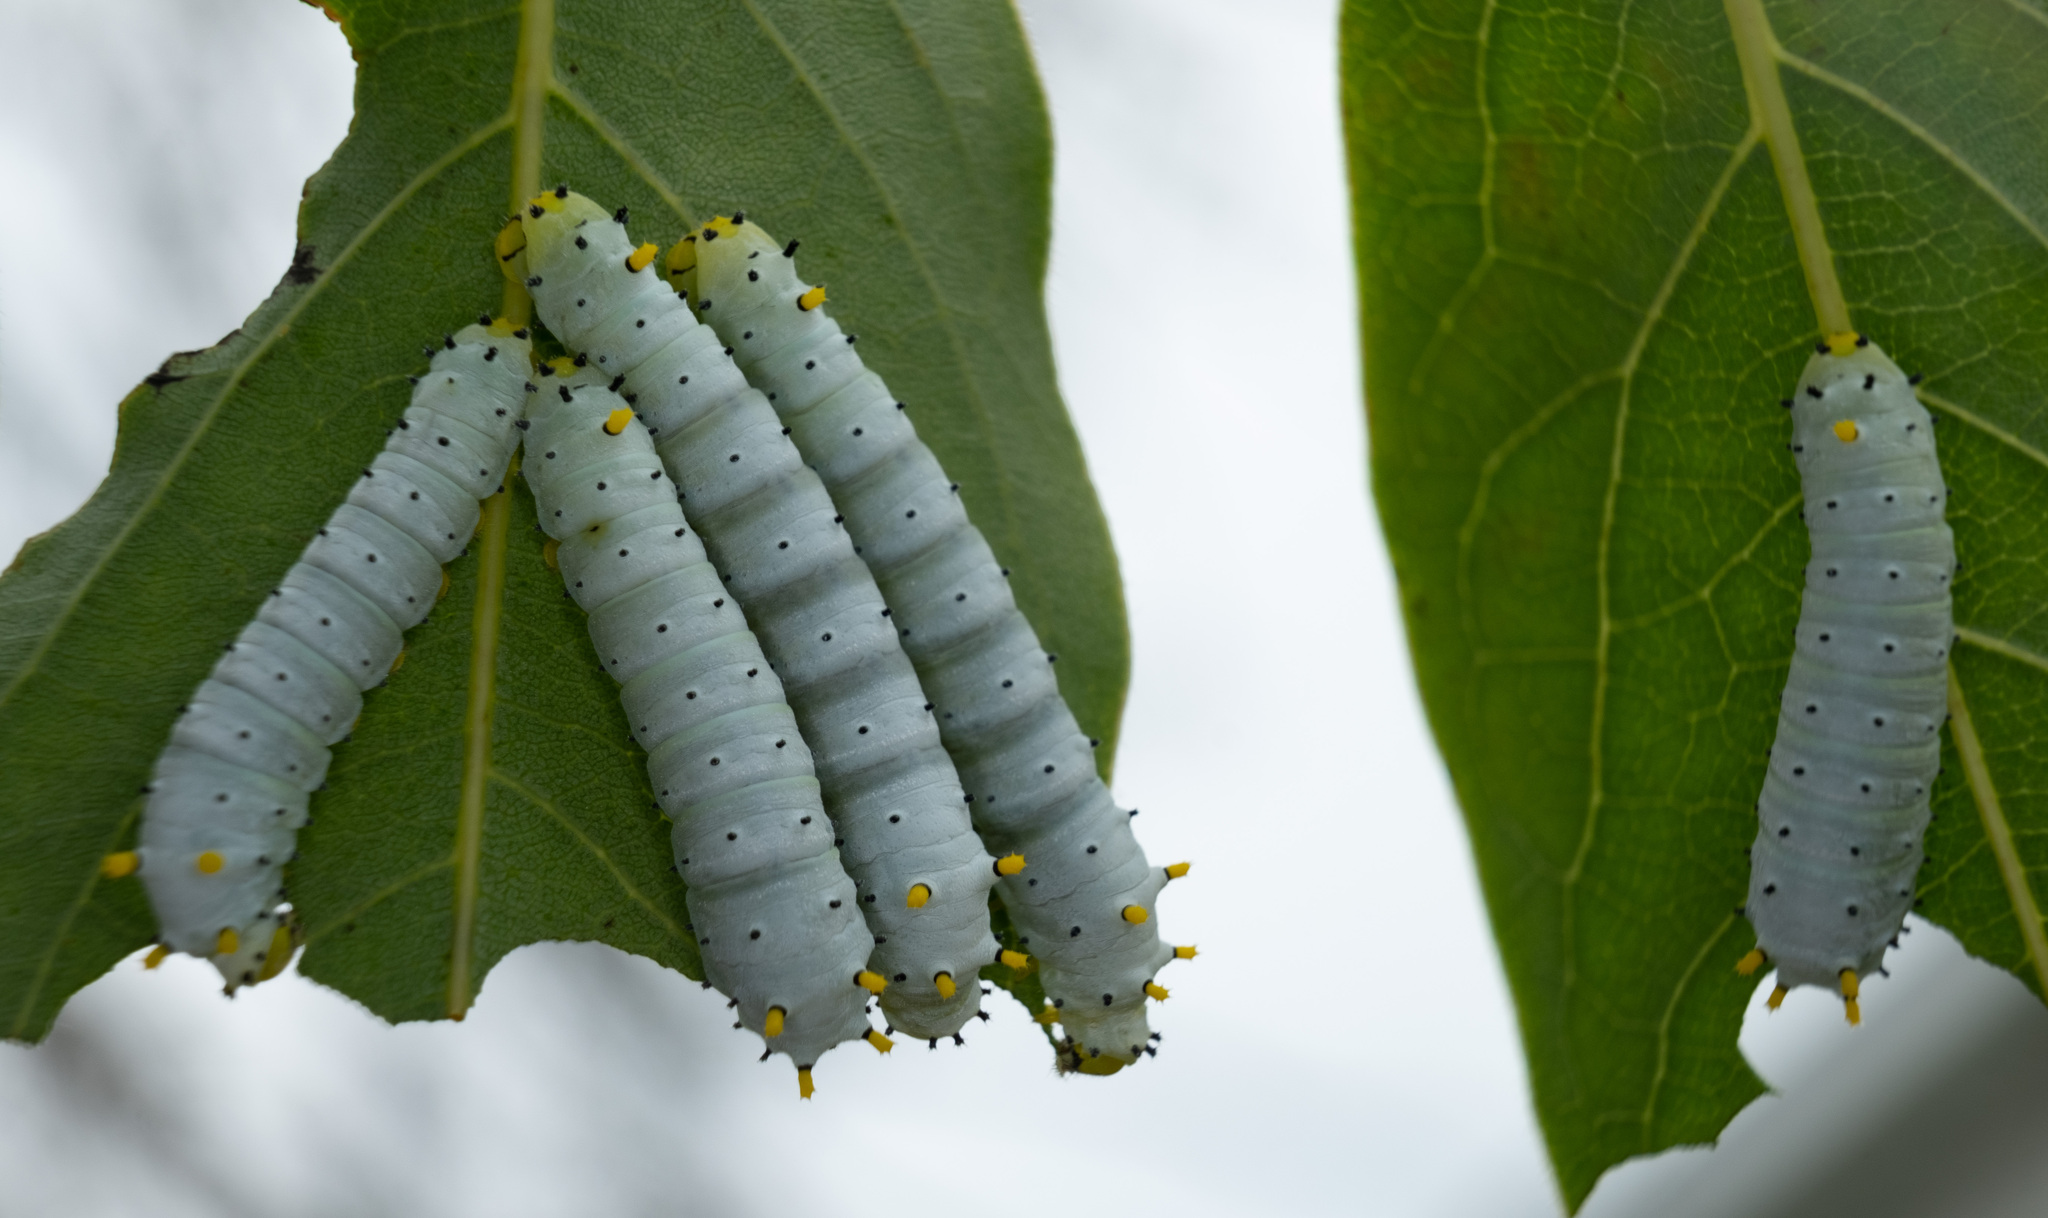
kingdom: Animalia
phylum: Arthropoda
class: Insecta
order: Lepidoptera
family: Saturniidae
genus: Callosamia
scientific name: Callosamia promethea
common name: Promethea silkmoth
